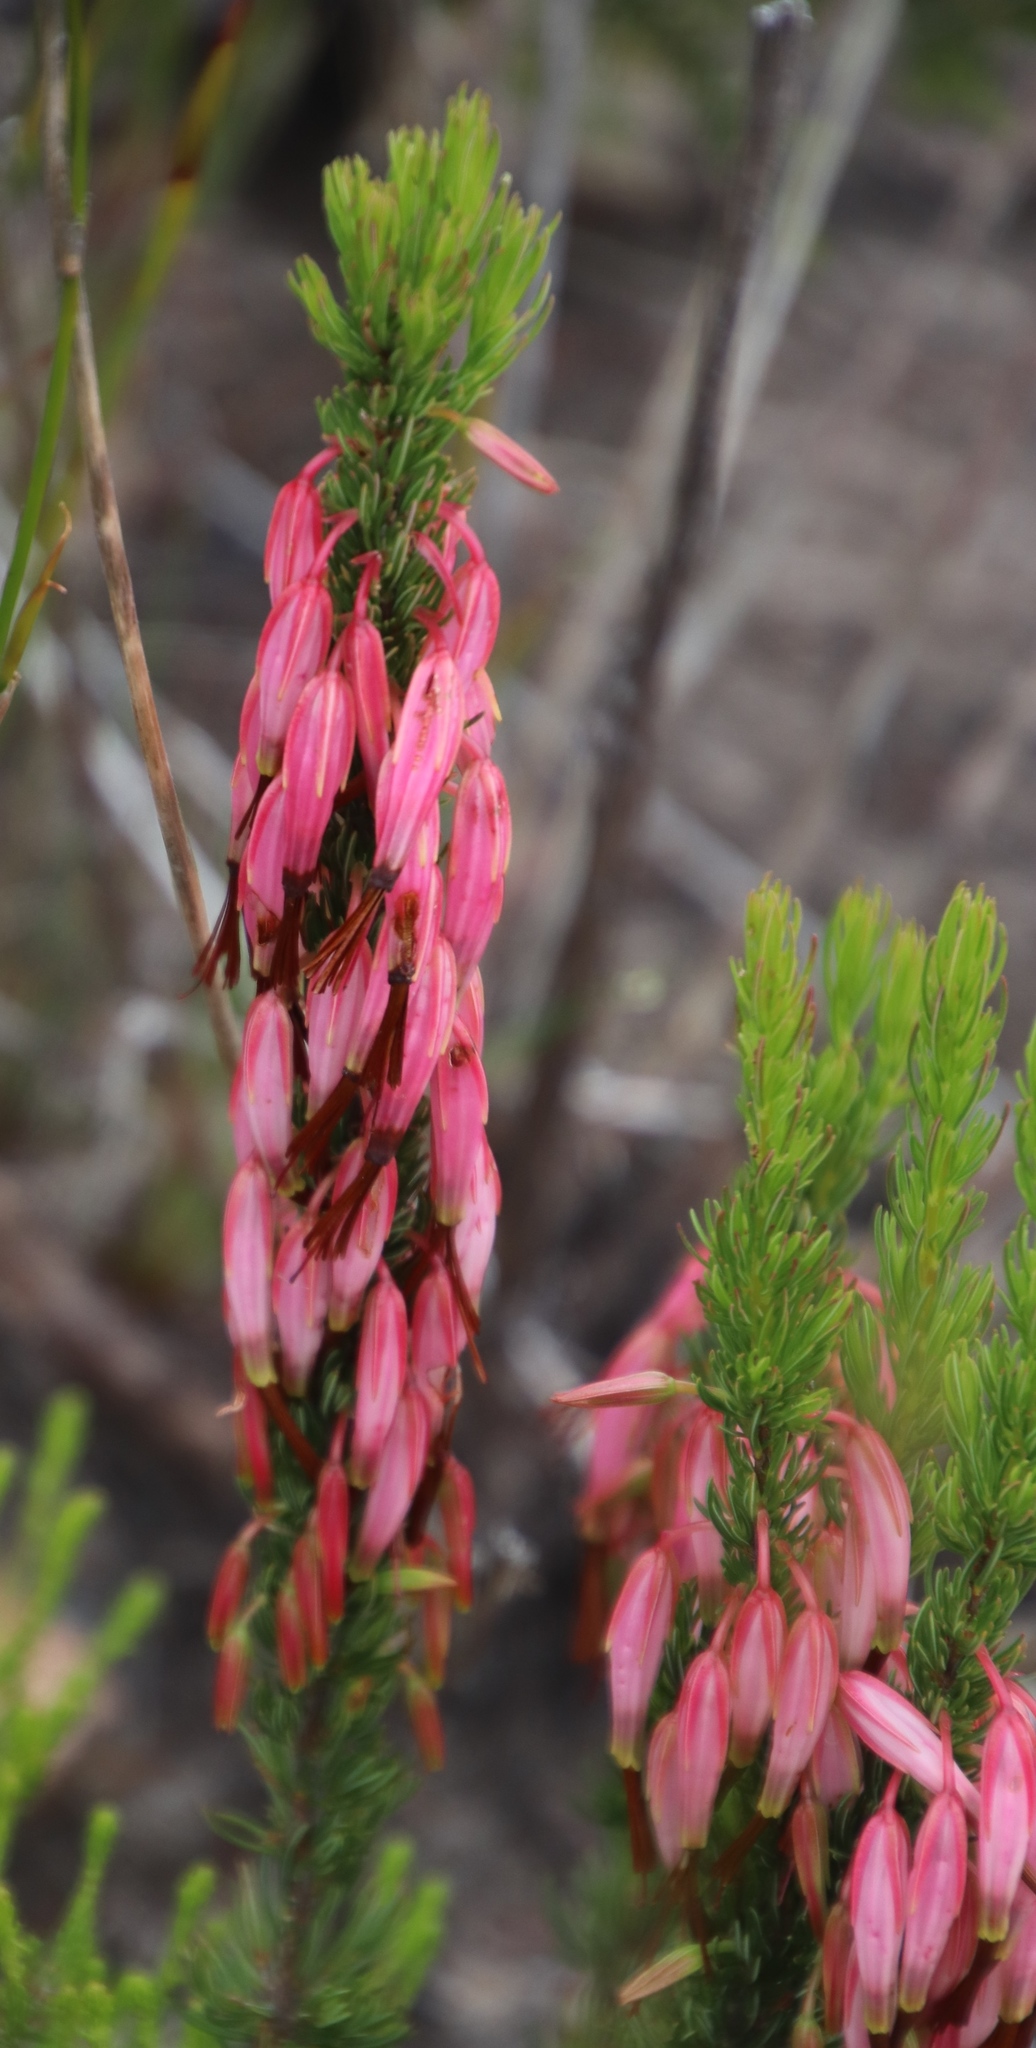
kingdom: Plantae
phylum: Tracheophyta
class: Magnoliopsida
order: Ericales
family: Ericaceae
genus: Erica
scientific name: Erica plukenetii
